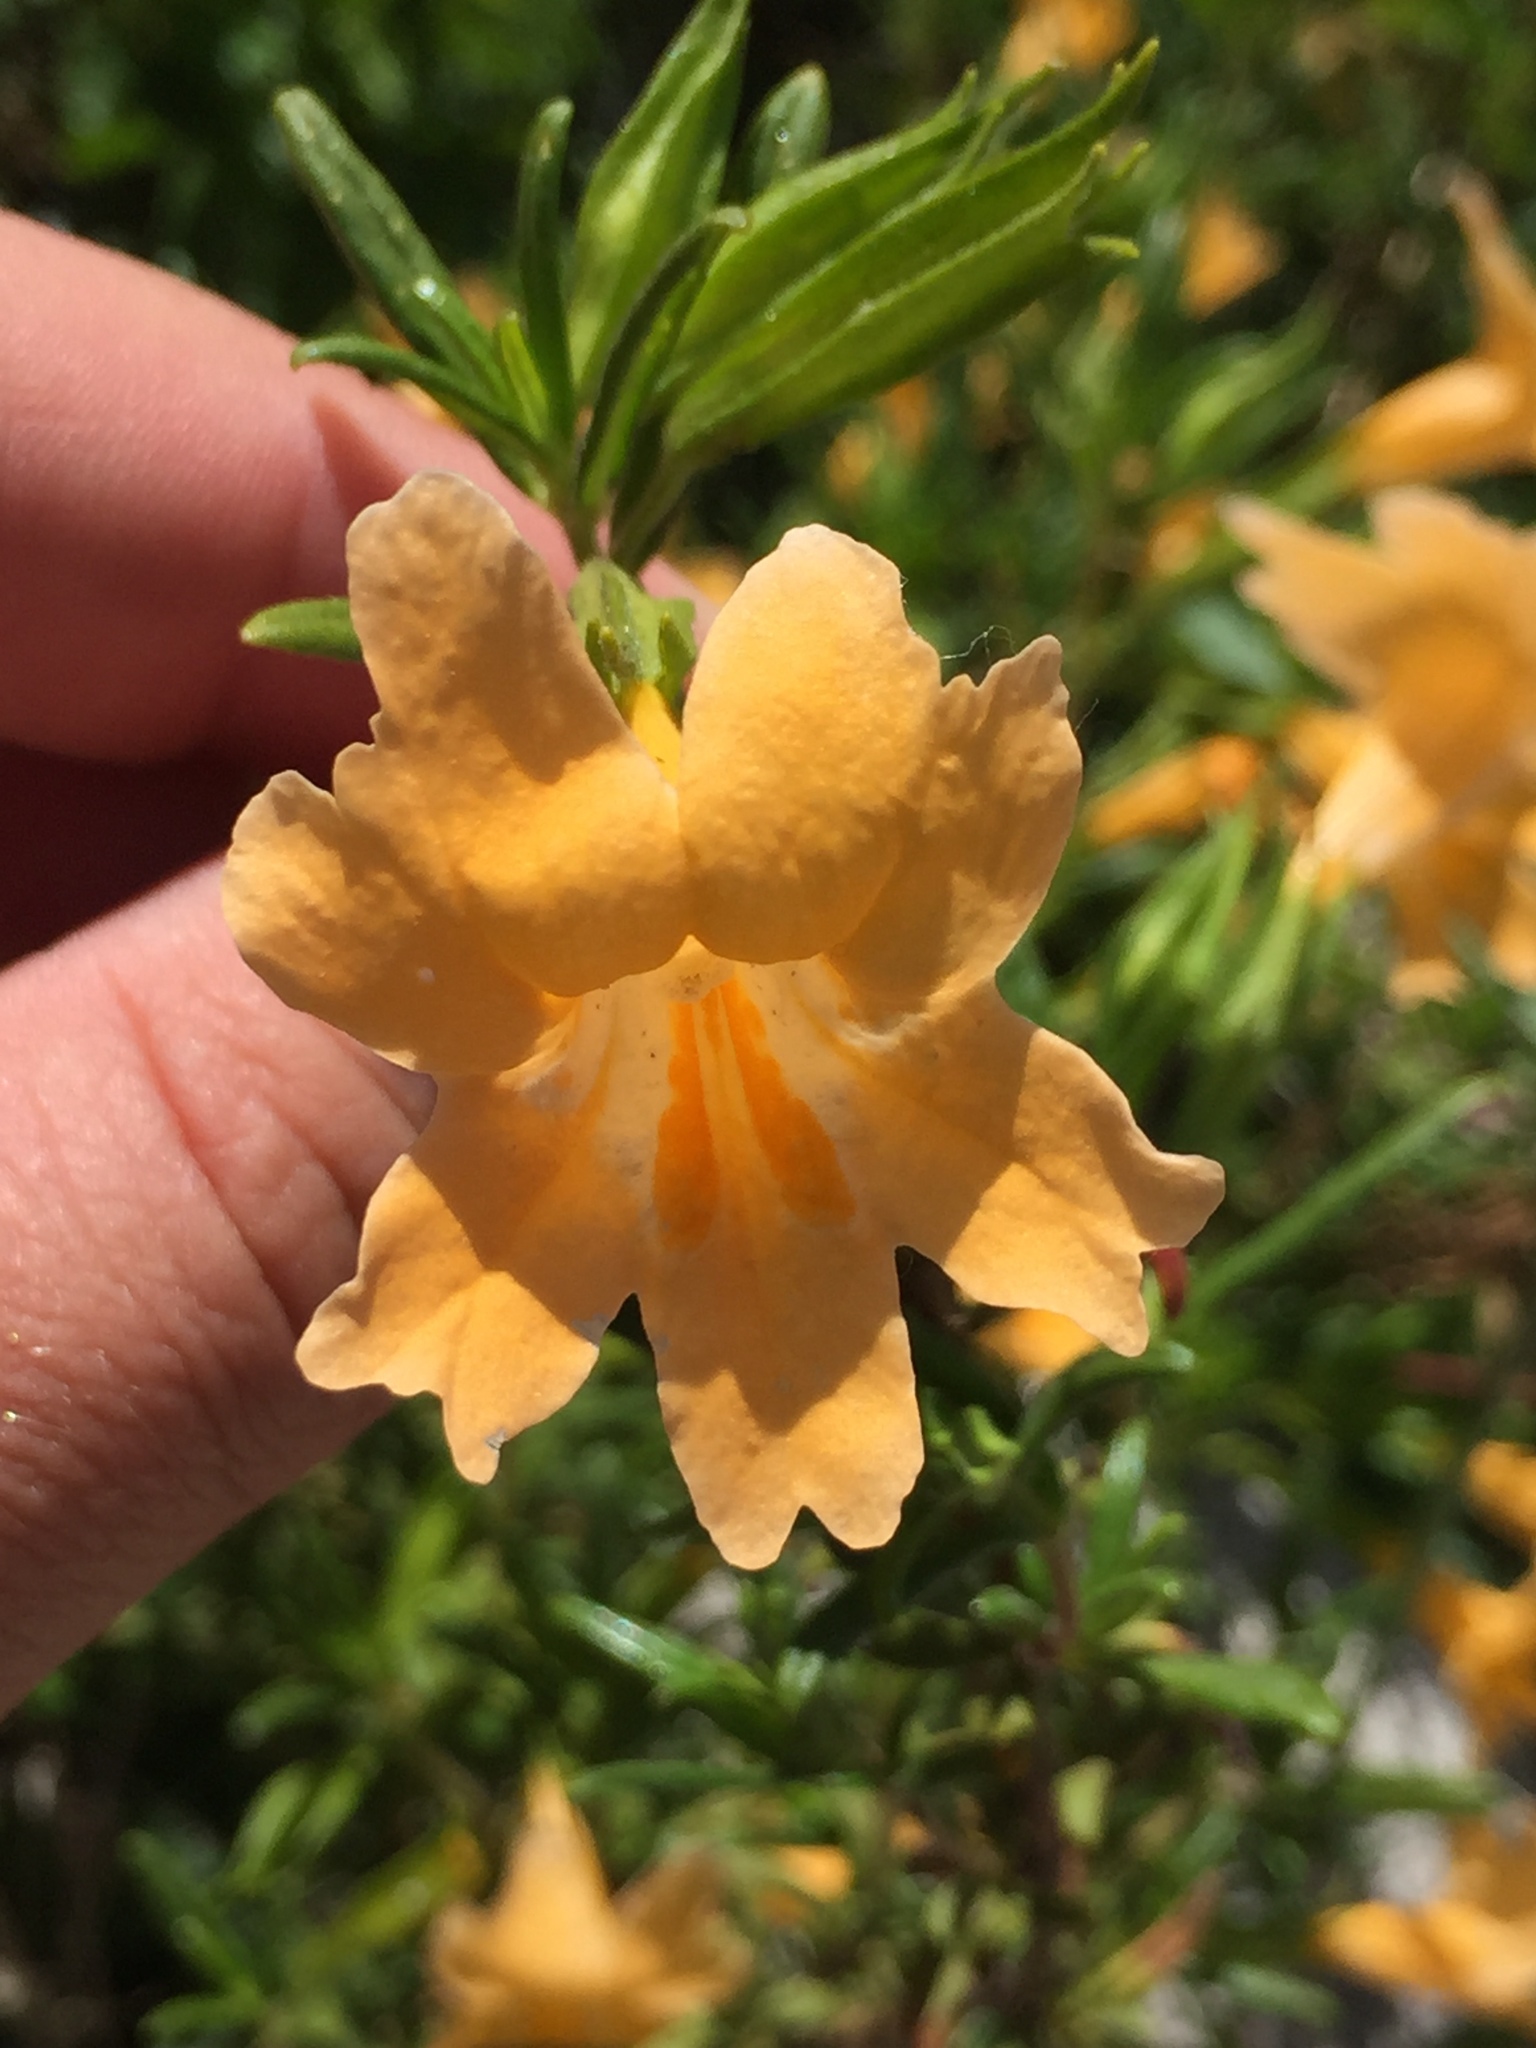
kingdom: Plantae
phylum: Tracheophyta
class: Magnoliopsida
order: Lamiales
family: Phrymaceae
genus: Diplacus
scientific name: Diplacus aurantiacus
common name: Bush monkey-flower
